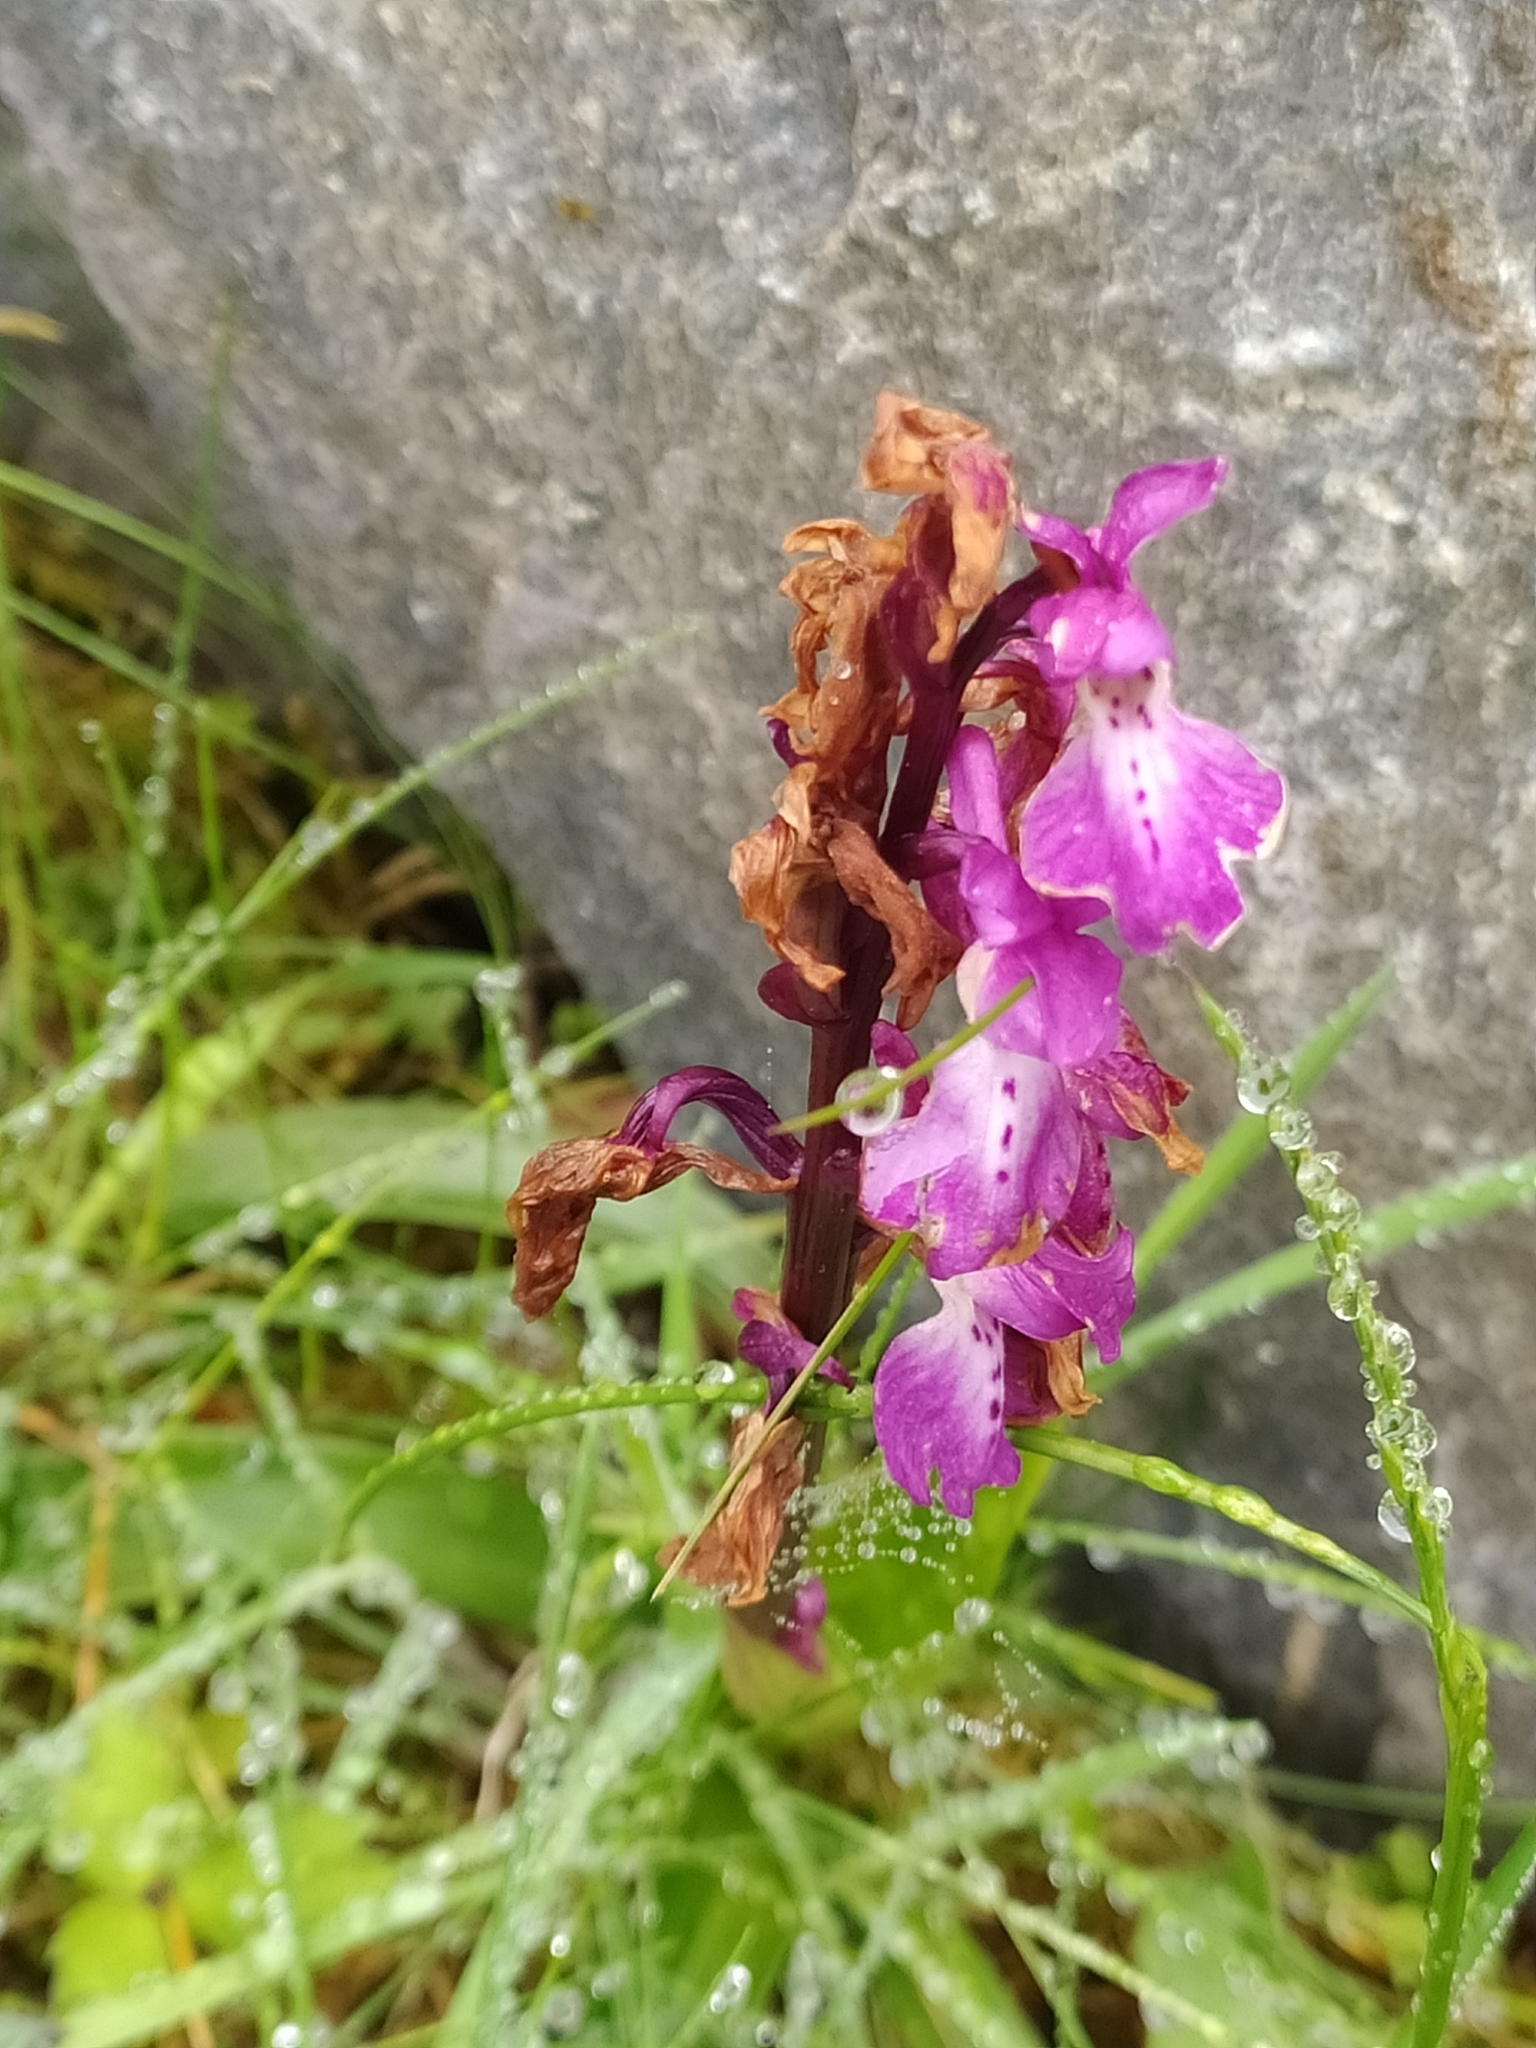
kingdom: Plantae
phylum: Tracheophyta
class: Liliopsida
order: Asparagales
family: Orchidaceae
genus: Orchis
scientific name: Orchis mascula
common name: Early-purple orchid
